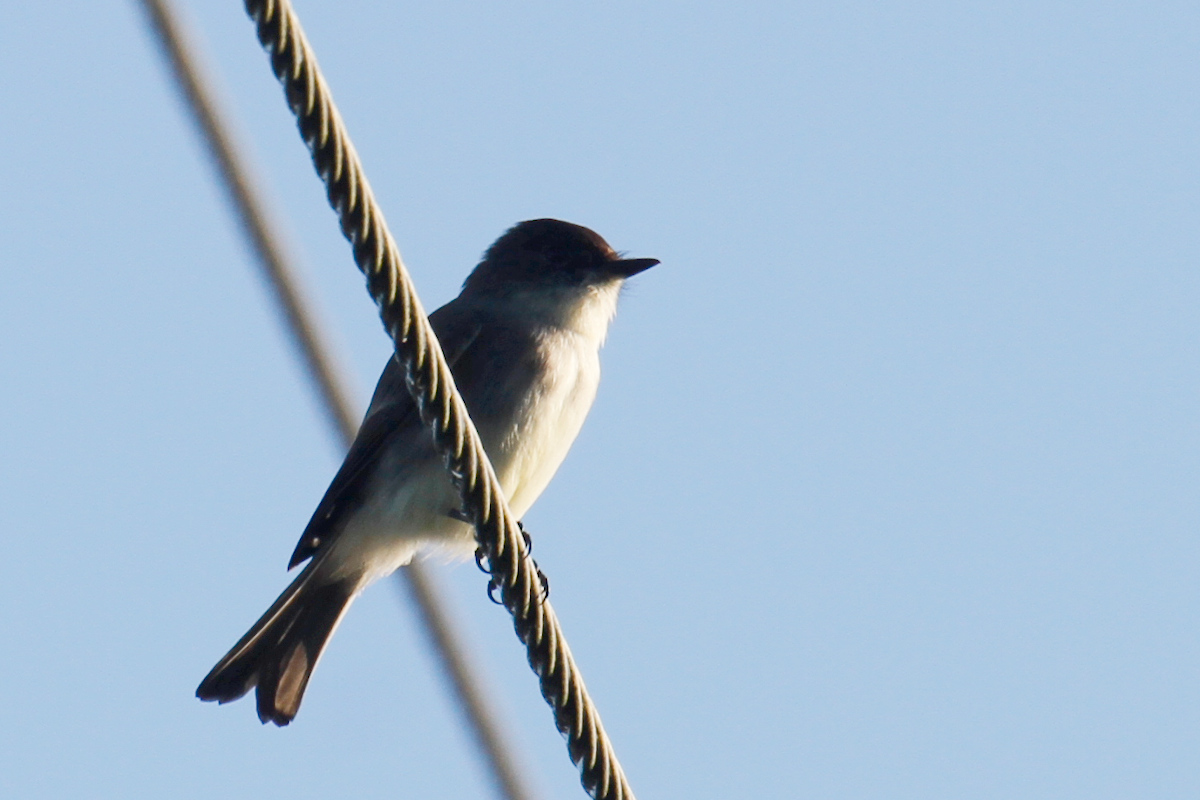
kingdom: Animalia
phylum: Chordata
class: Aves
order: Passeriformes
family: Tyrannidae
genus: Sayornis
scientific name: Sayornis phoebe
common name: Eastern phoebe
